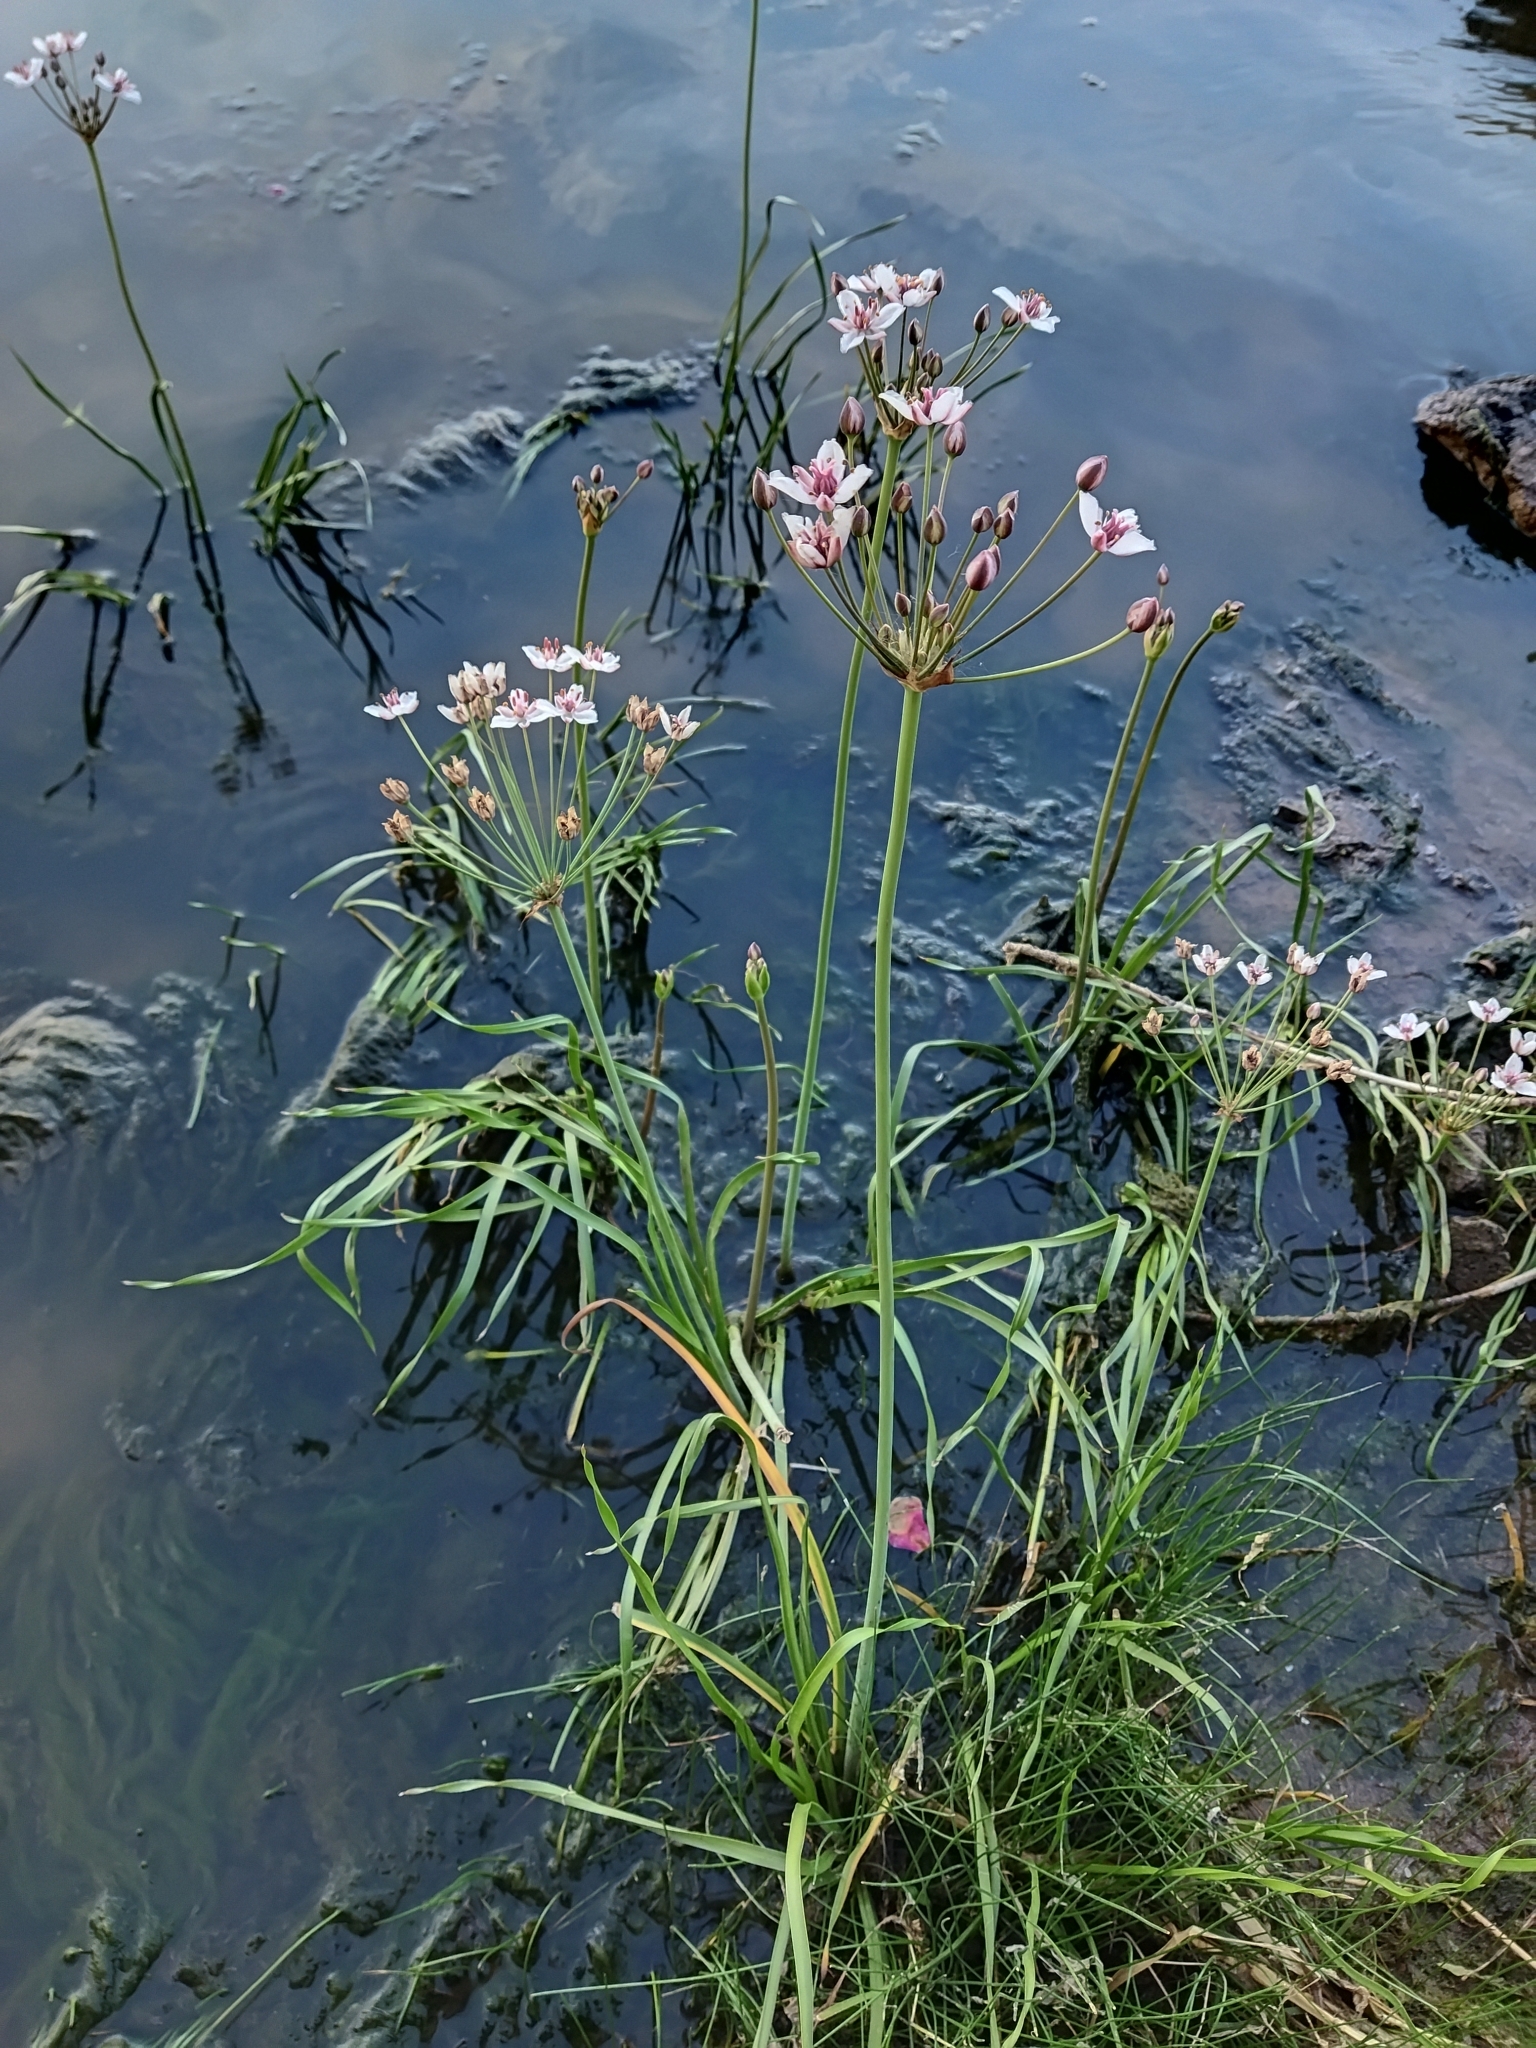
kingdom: Plantae
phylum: Tracheophyta
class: Liliopsida
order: Alismatales
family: Butomaceae
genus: Butomus
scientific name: Butomus umbellatus
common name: Flowering-rush
